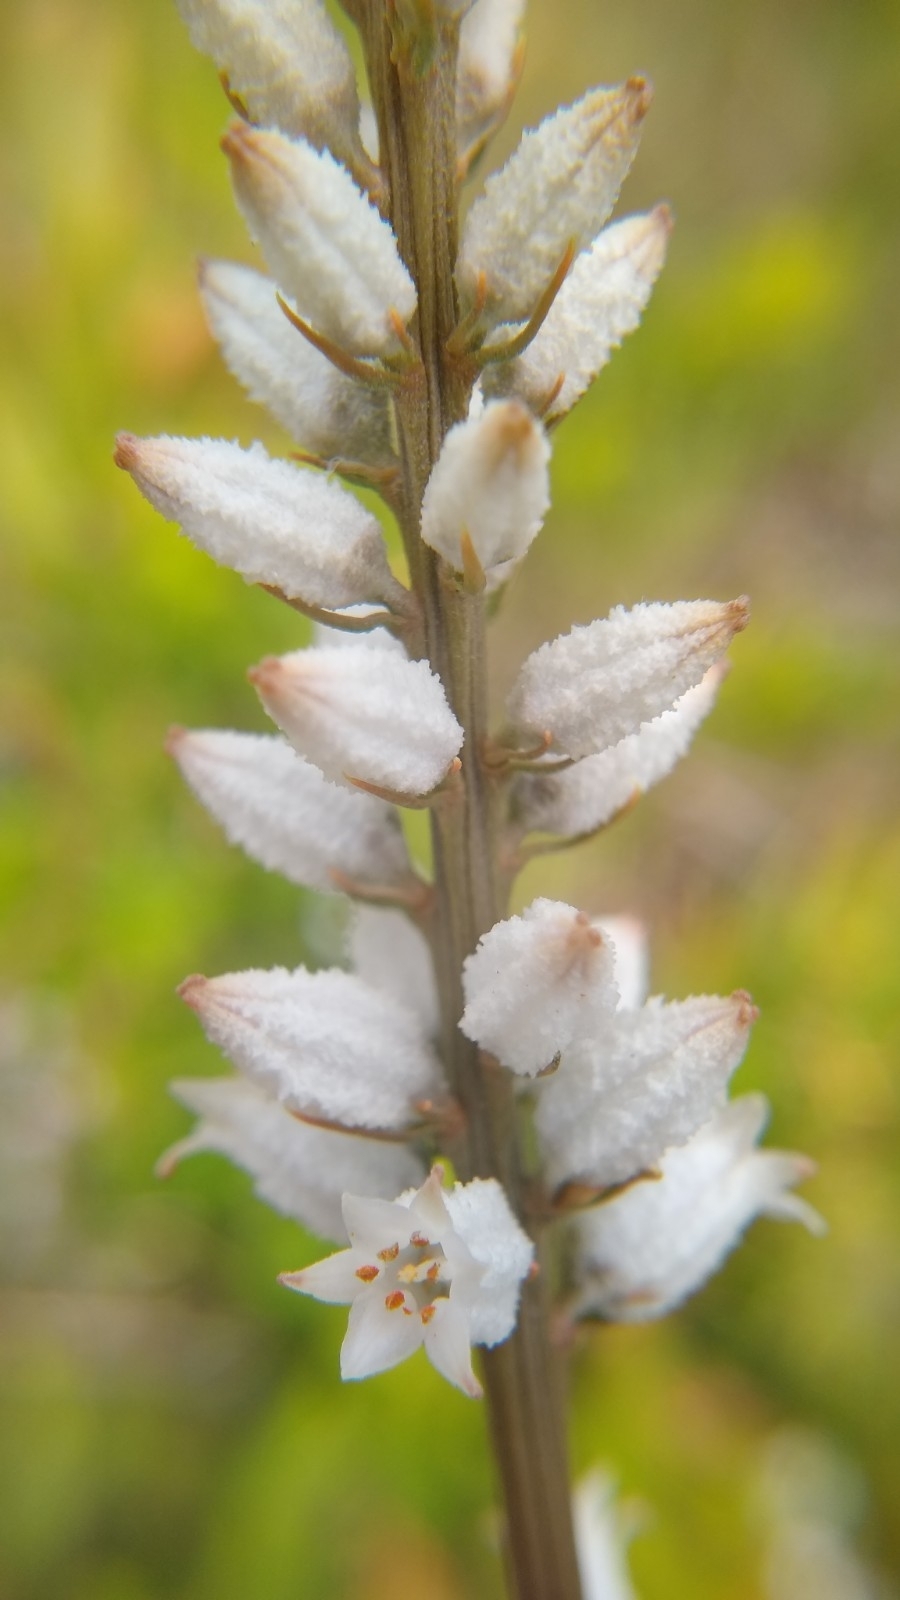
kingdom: Plantae
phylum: Tracheophyta
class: Liliopsida
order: Dioscoreales
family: Nartheciaceae
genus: Aletris
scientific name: Aletris farinosa
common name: Colicroot
